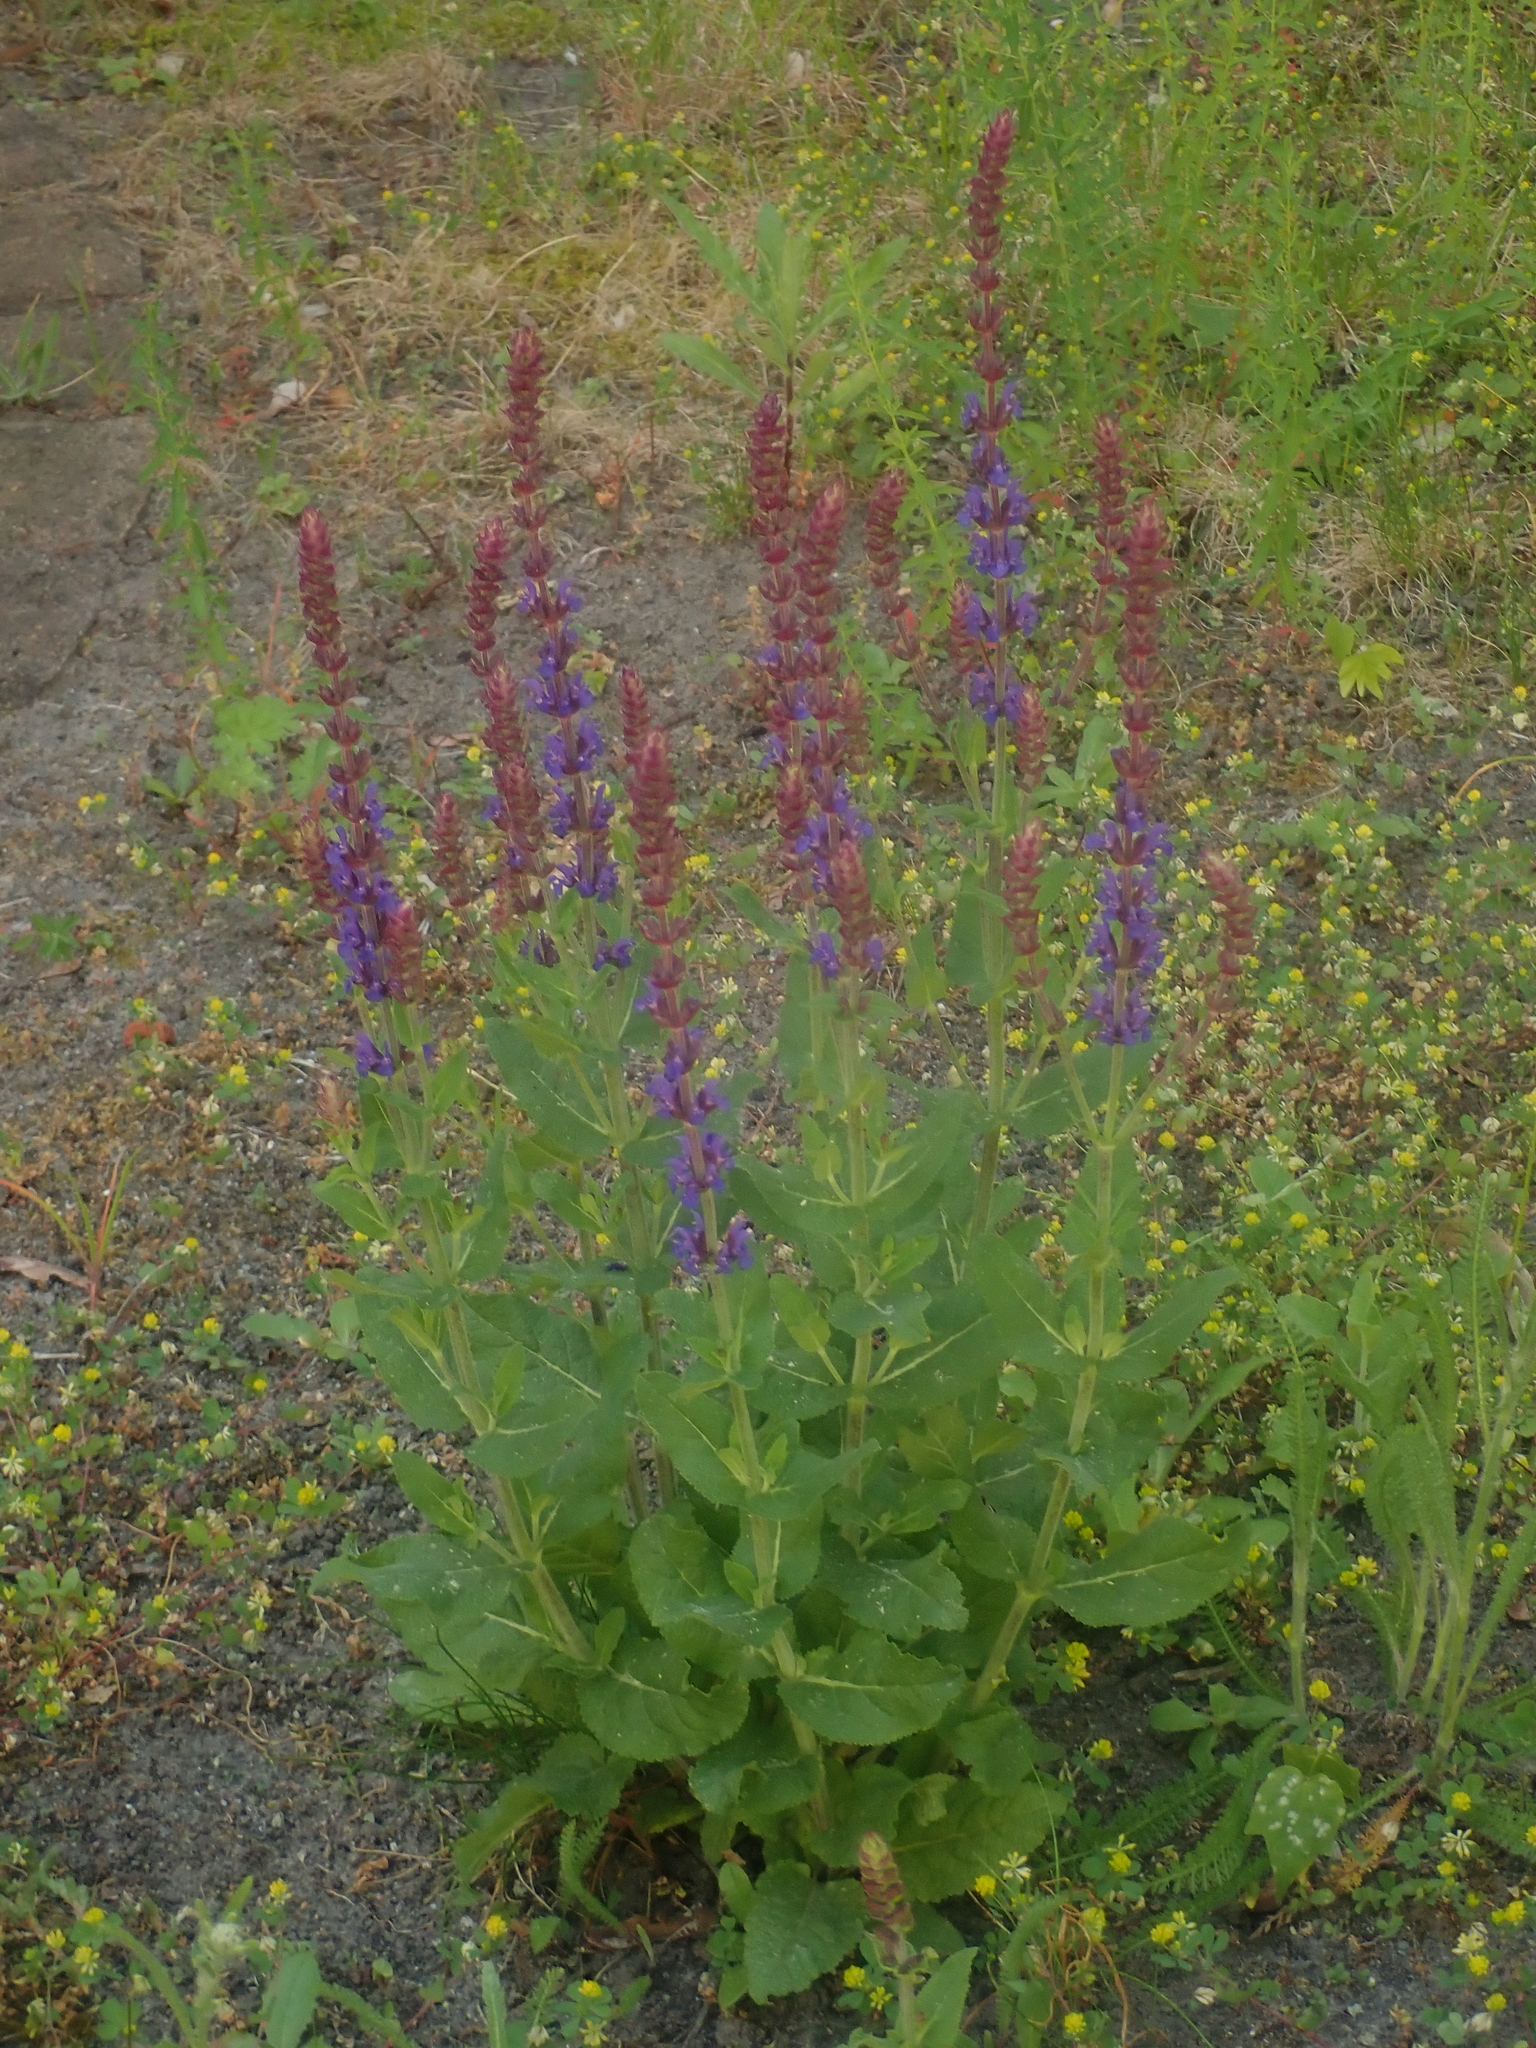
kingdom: Plantae
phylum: Tracheophyta
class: Magnoliopsida
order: Lamiales
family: Lamiaceae
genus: Salvia
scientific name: Salvia nemorosa
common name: Balkan clary
